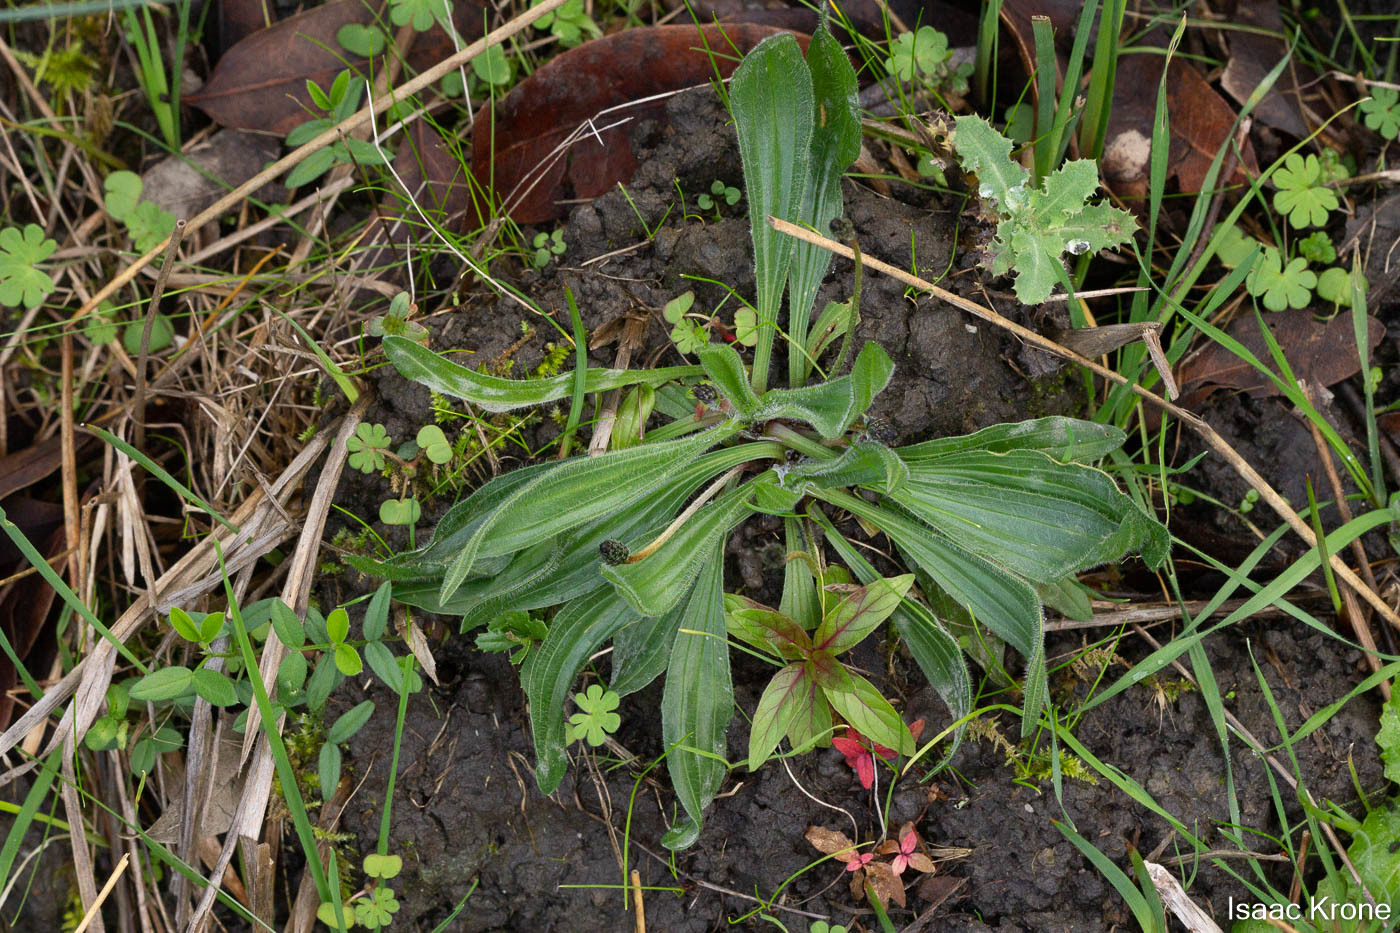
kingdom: Plantae
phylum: Tracheophyta
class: Magnoliopsida
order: Lamiales
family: Plantaginaceae
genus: Plantago
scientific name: Plantago lanceolata
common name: Ribwort plantain
